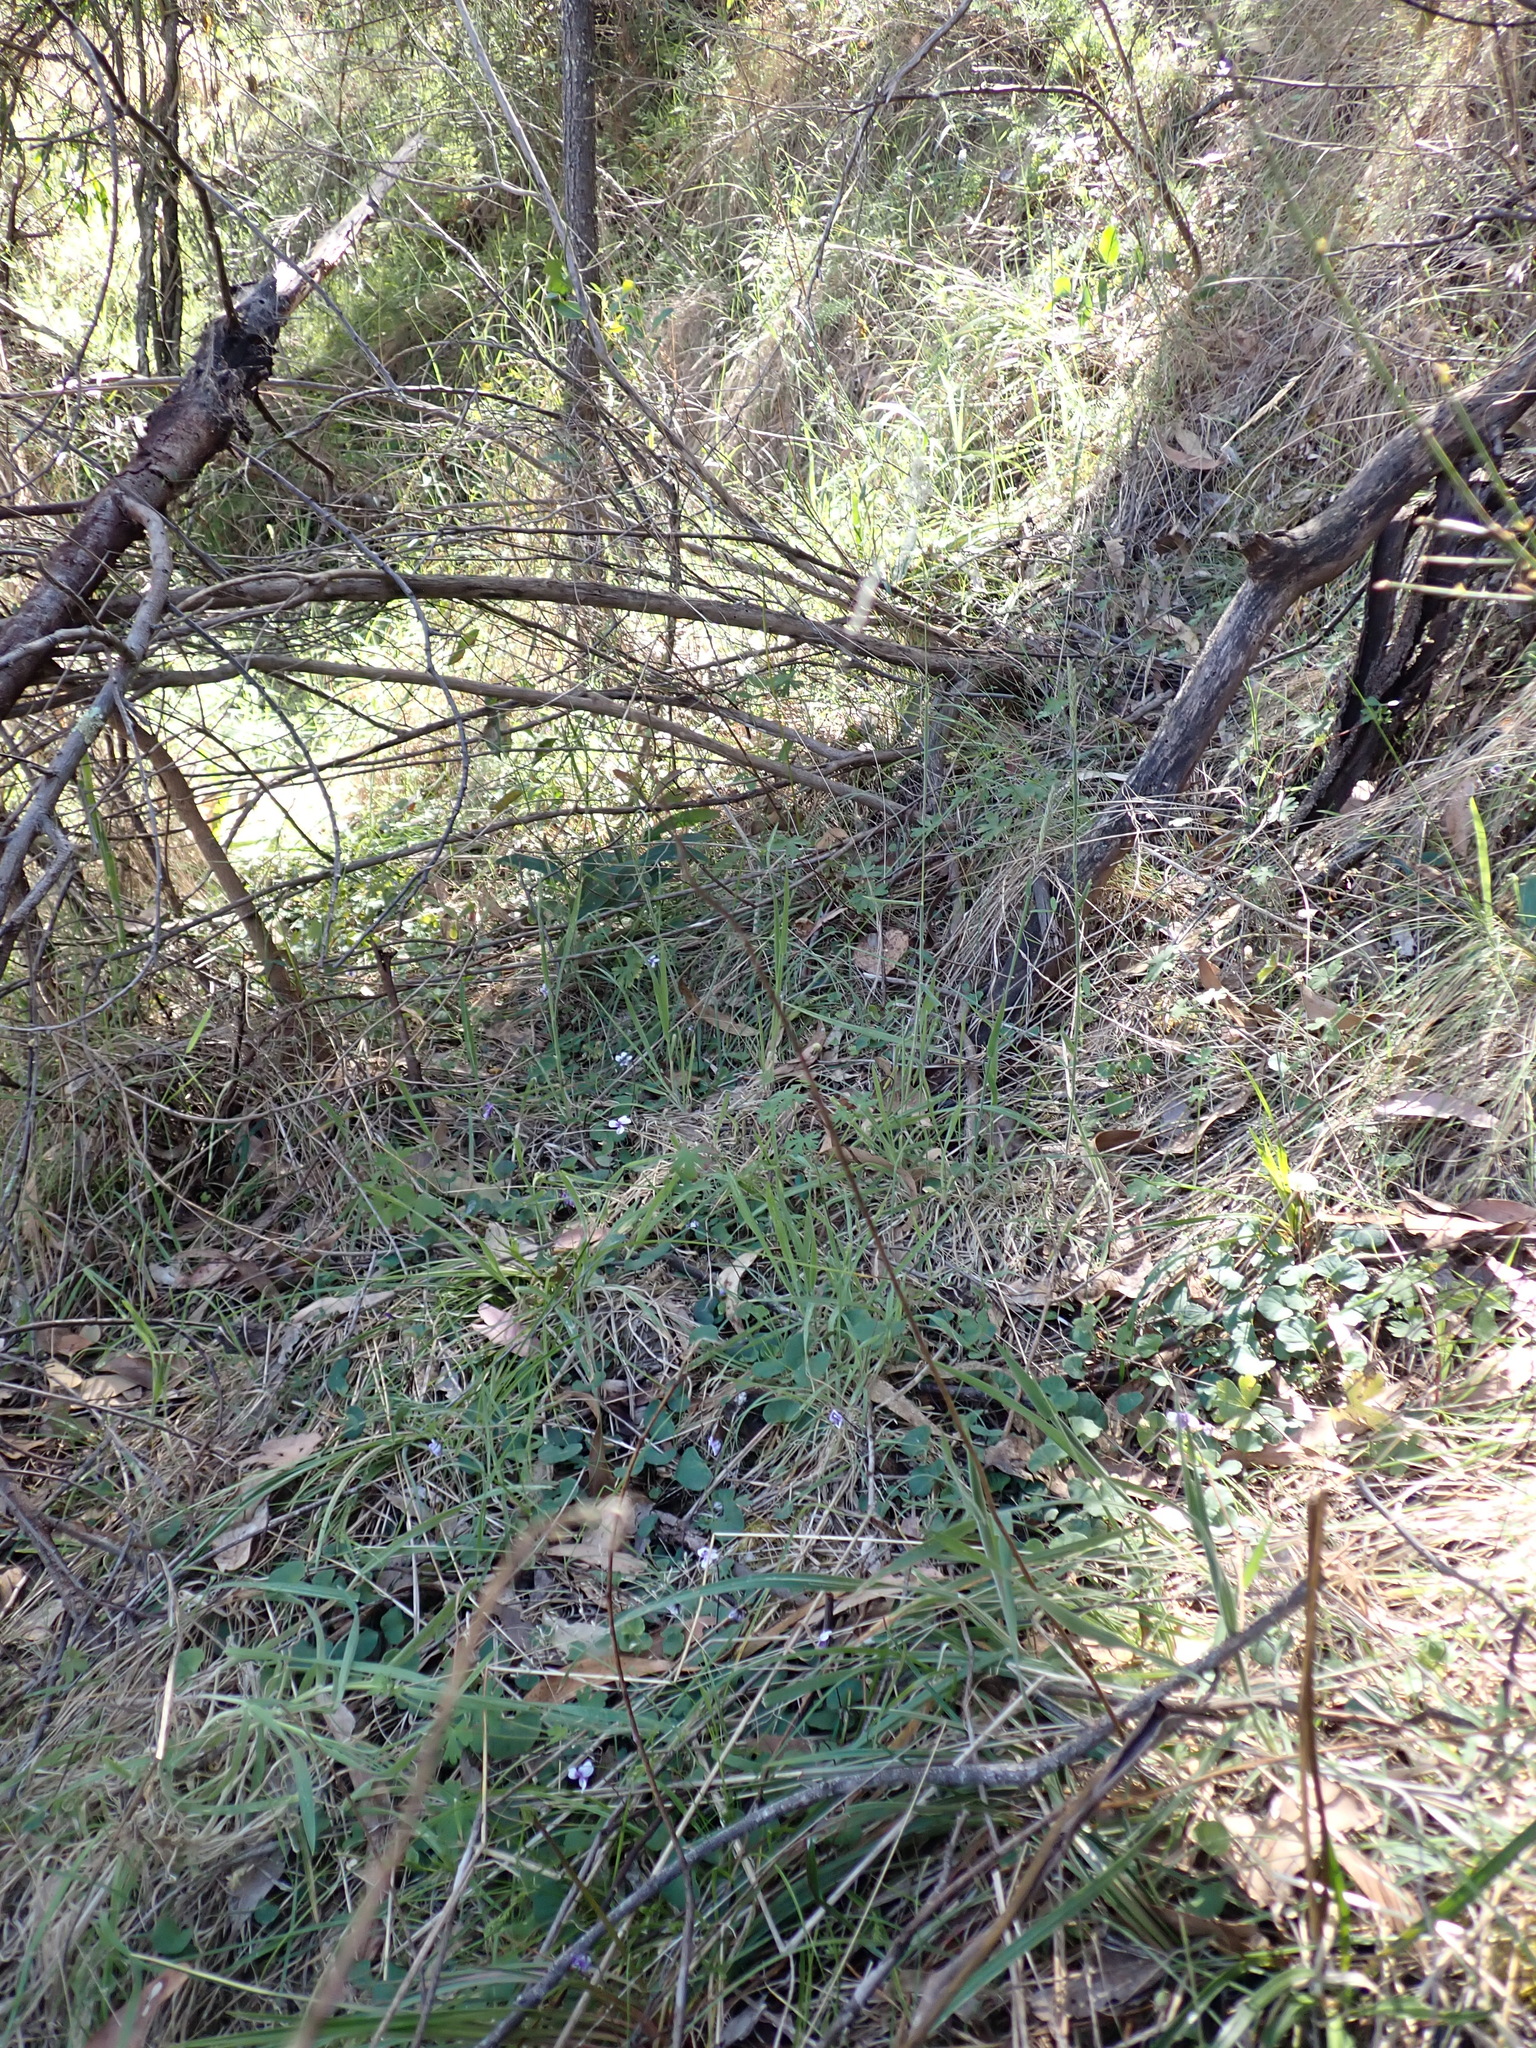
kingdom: Plantae
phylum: Tracheophyta
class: Magnoliopsida
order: Malpighiales
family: Violaceae
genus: Viola
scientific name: Viola hederacea
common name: Australian violet
